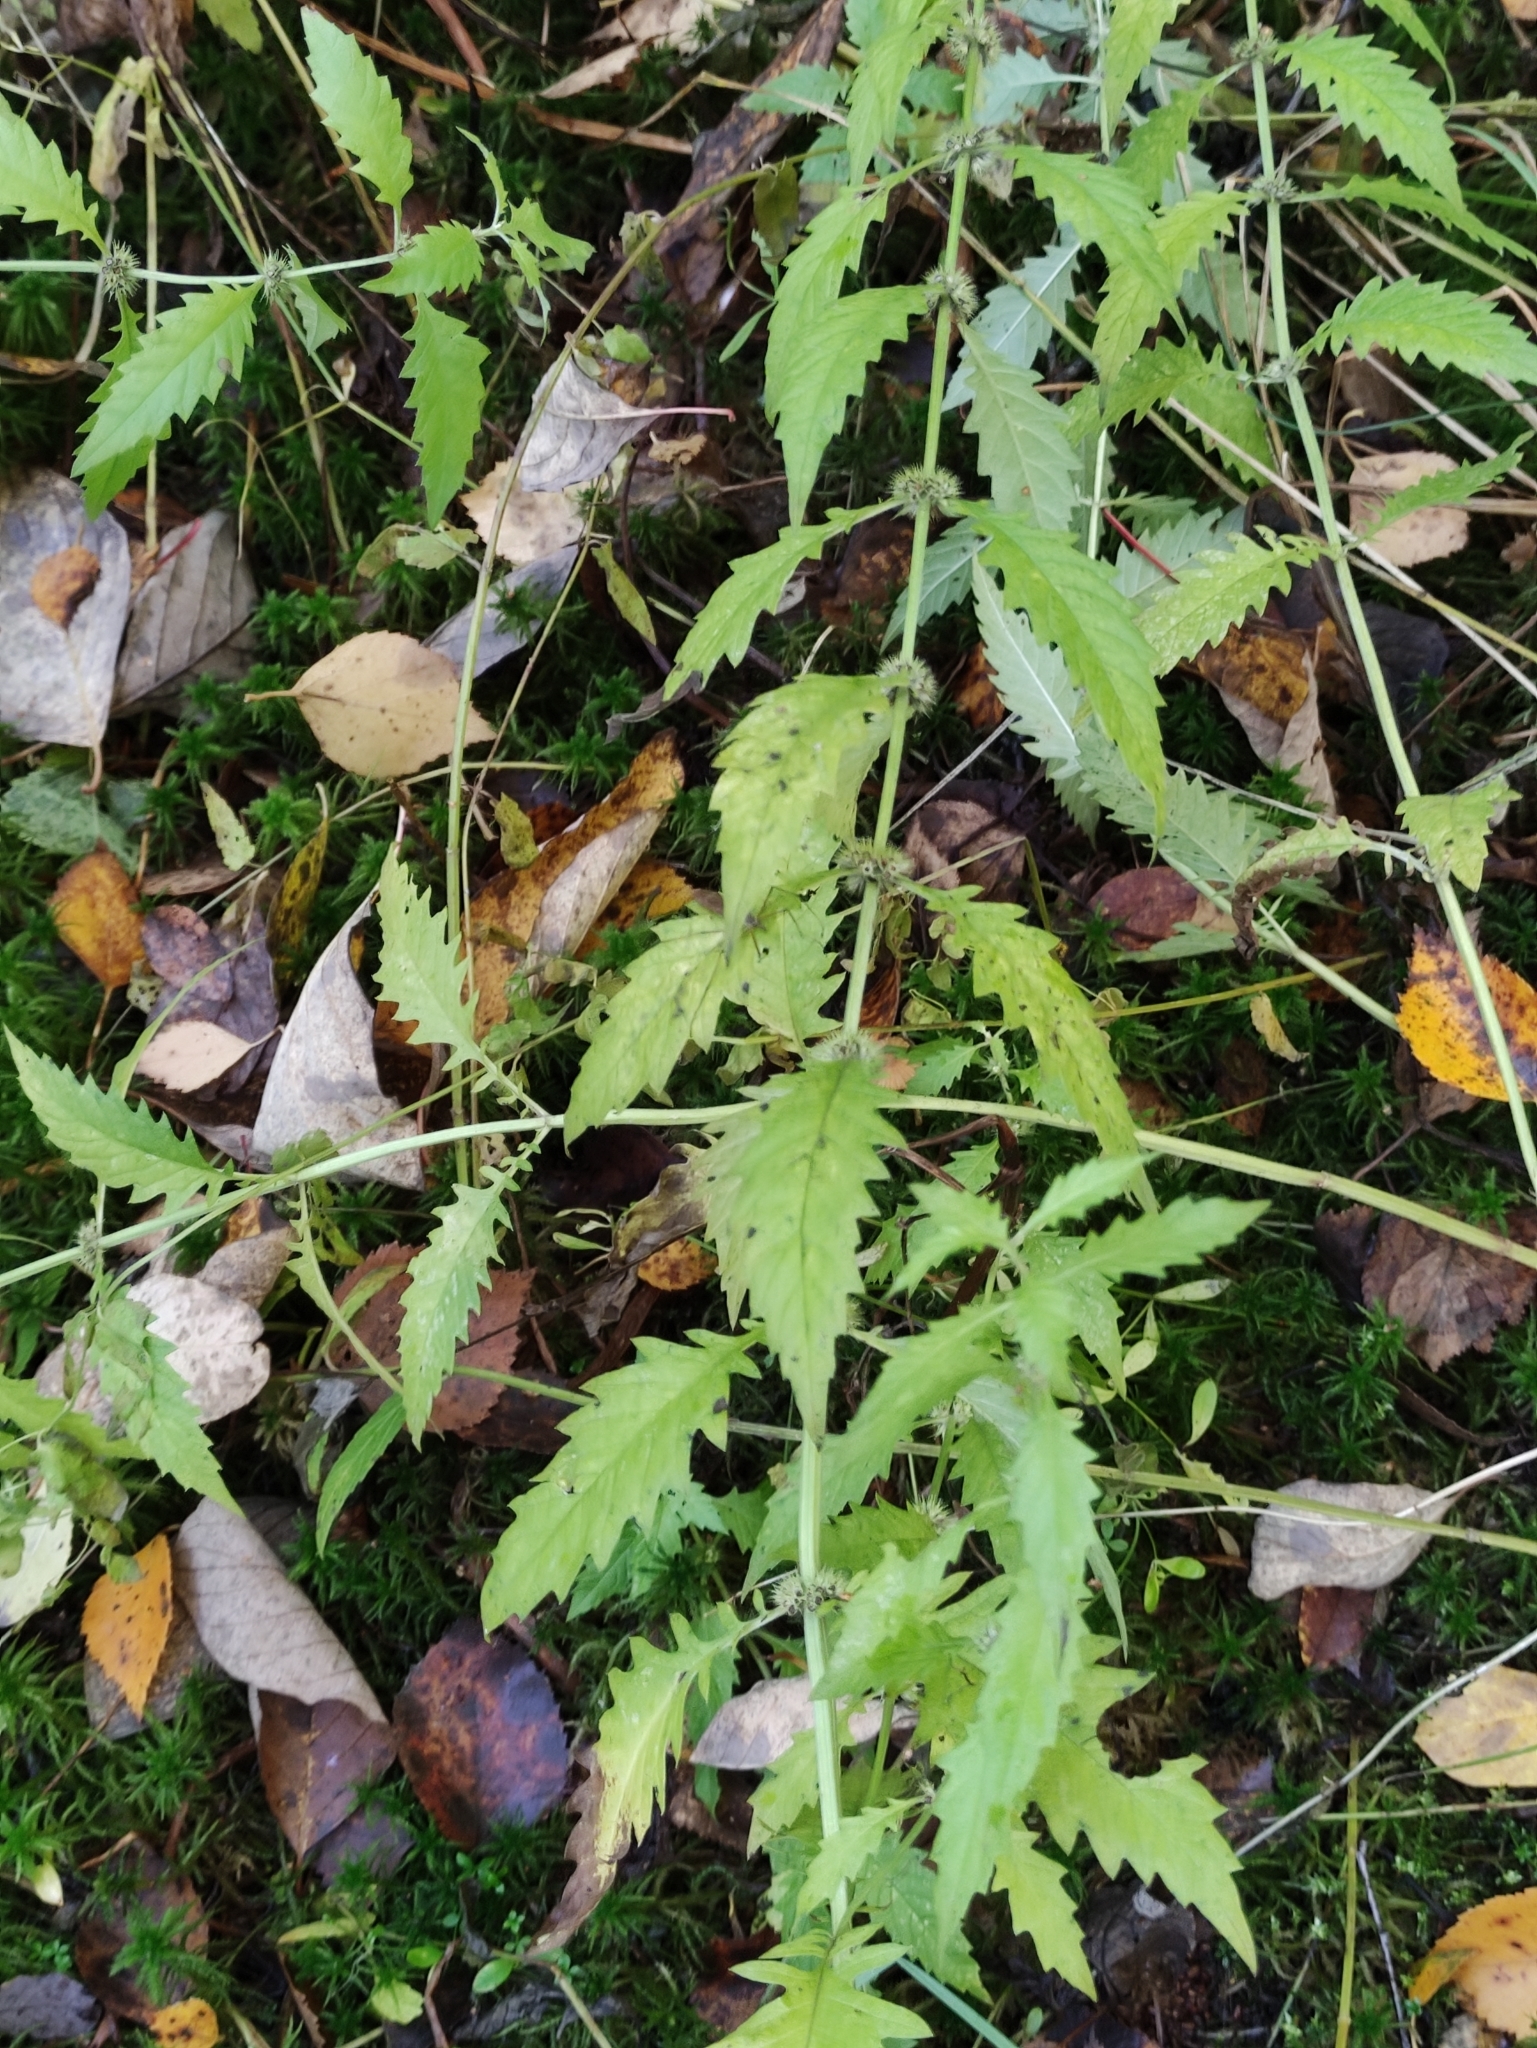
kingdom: Plantae
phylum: Tracheophyta
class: Magnoliopsida
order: Lamiales
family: Lamiaceae
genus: Lycopus
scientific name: Lycopus europaeus
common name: European bugleweed
